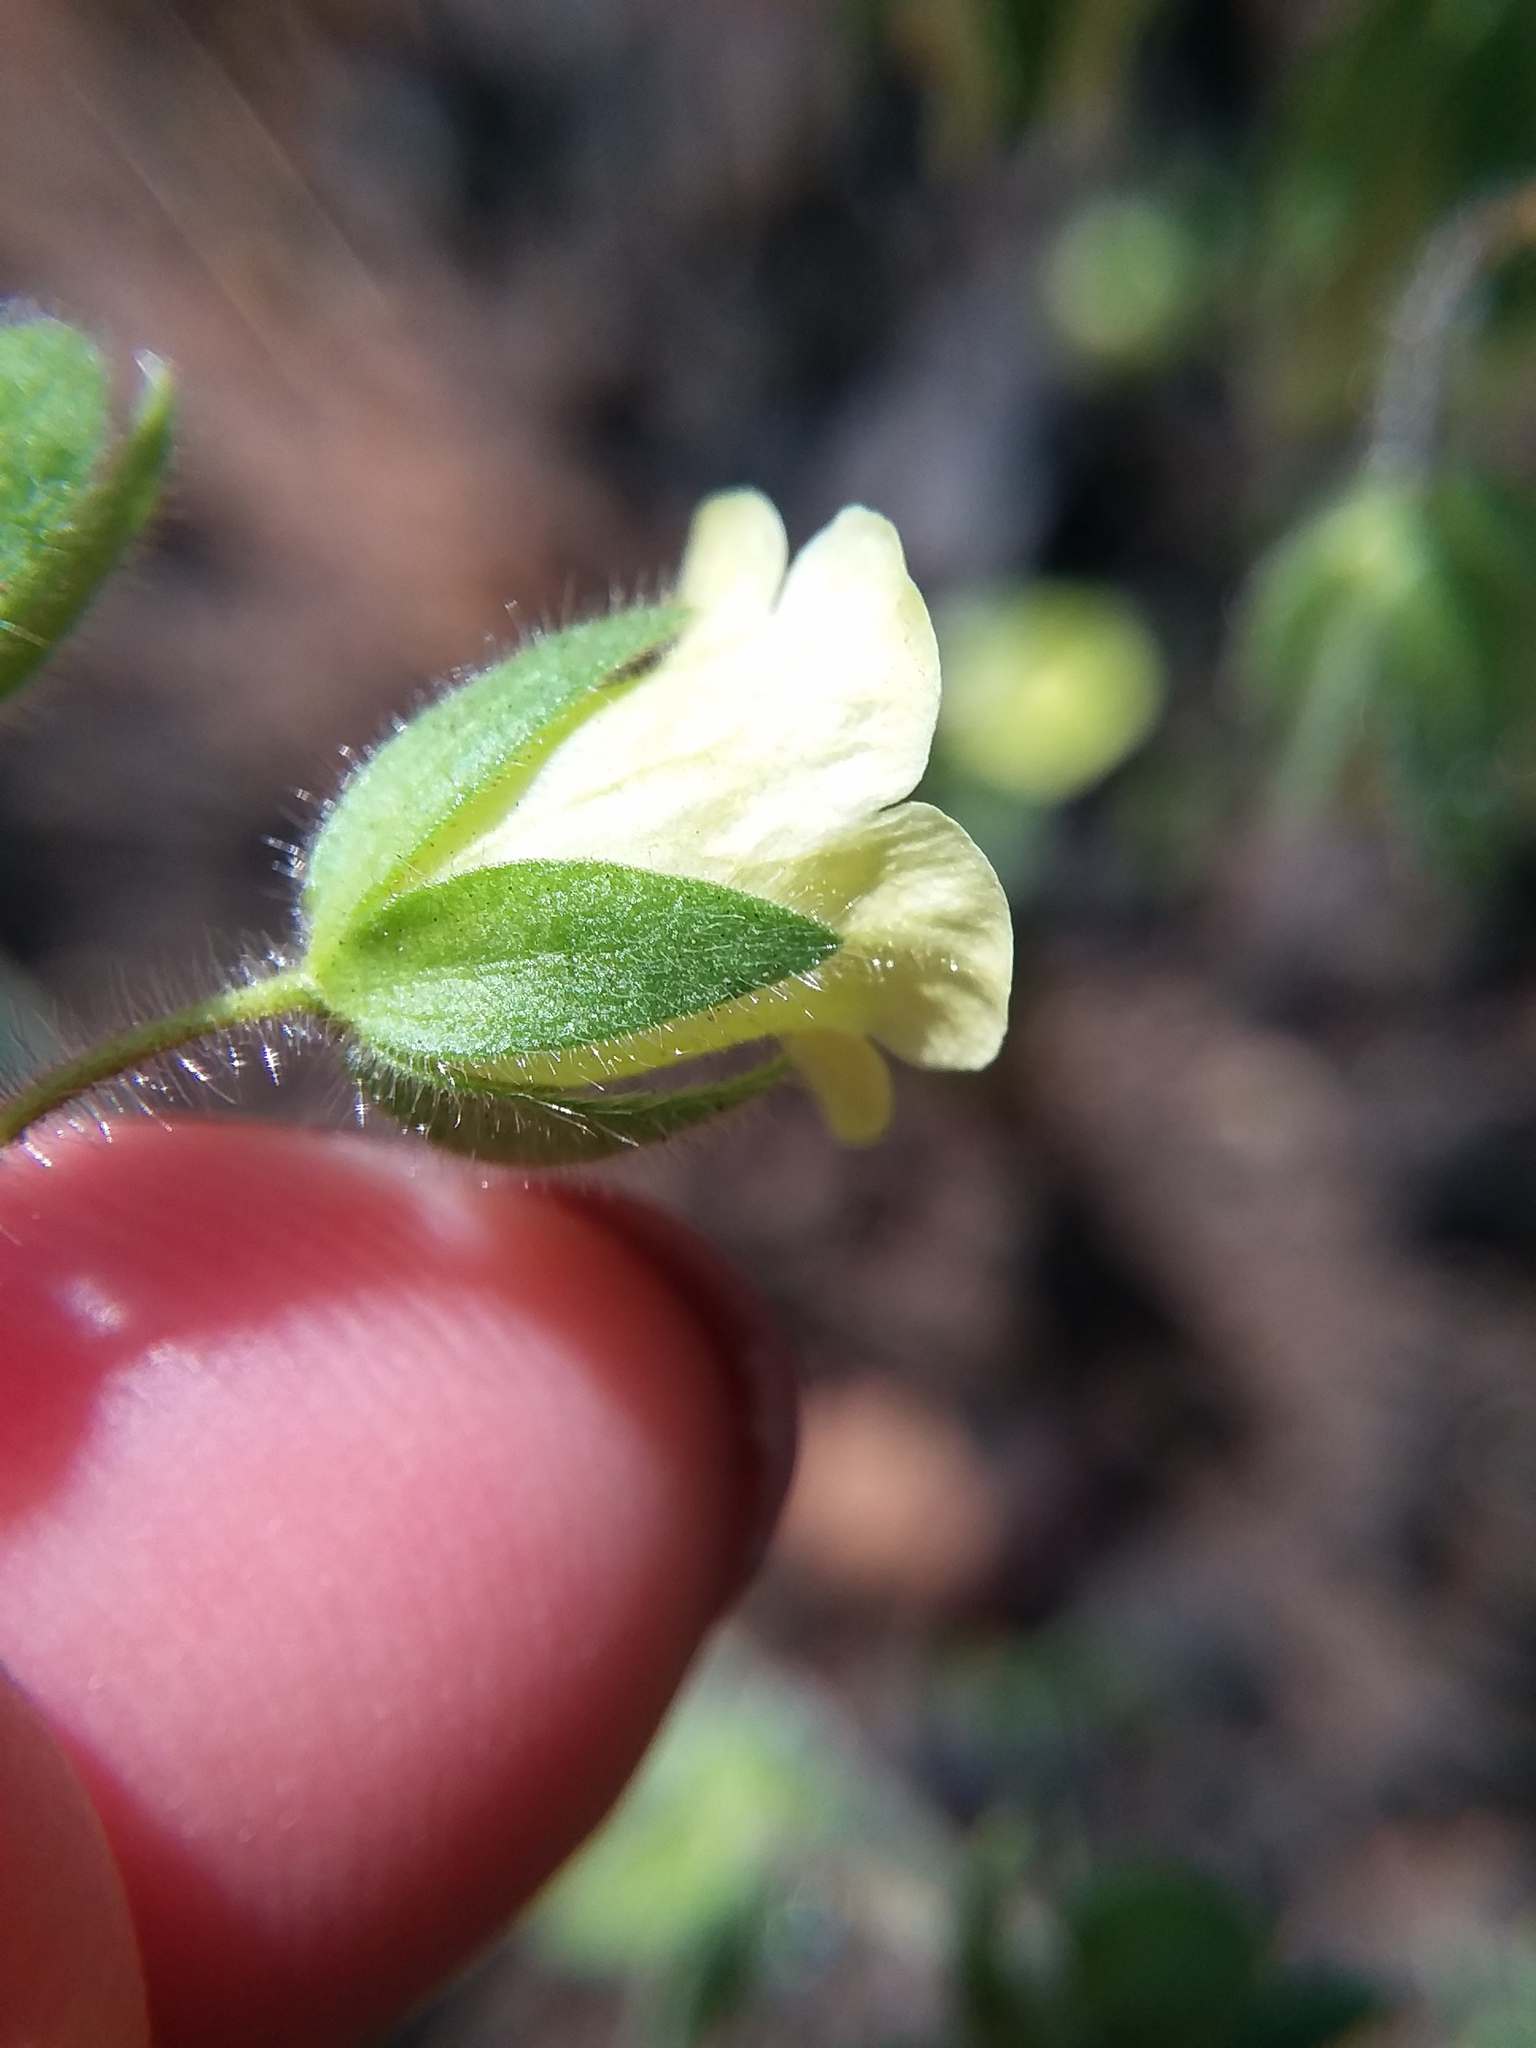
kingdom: Plantae
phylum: Tracheophyta
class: Magnoliopsida
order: Boraginales
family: Hydrophyllaceae
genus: Emmenanthe
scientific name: Emmenanthe penduliflora
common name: Whispering-bells
